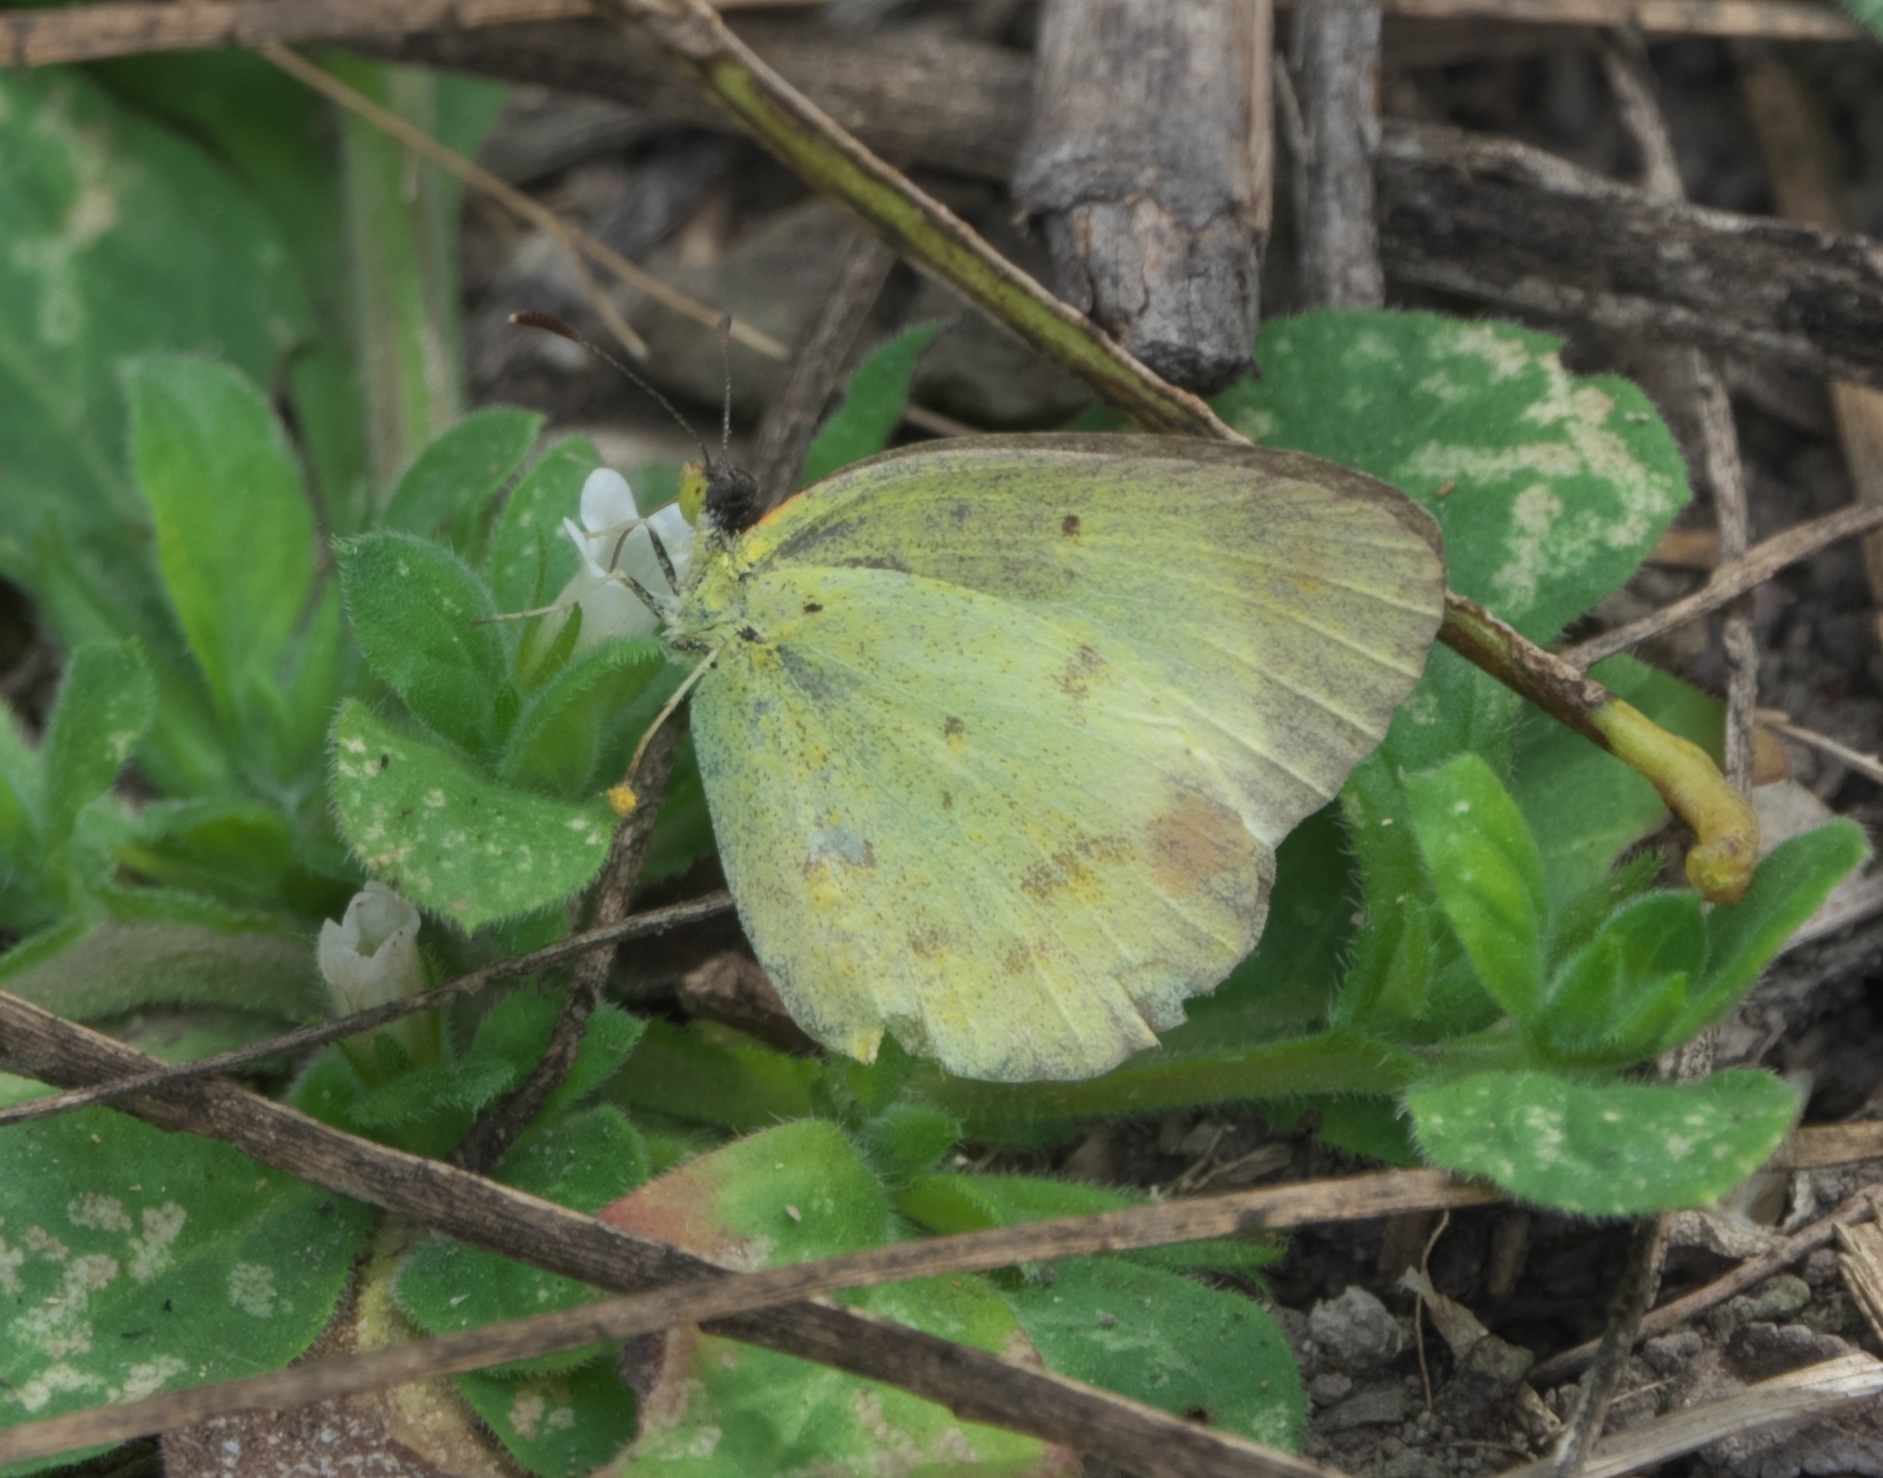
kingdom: Animalia
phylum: Arthropoda
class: Insecta
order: Lepidoptera
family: Pieridae
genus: Pyrisitia
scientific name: Pyrisitia lisa
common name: Little yellow
